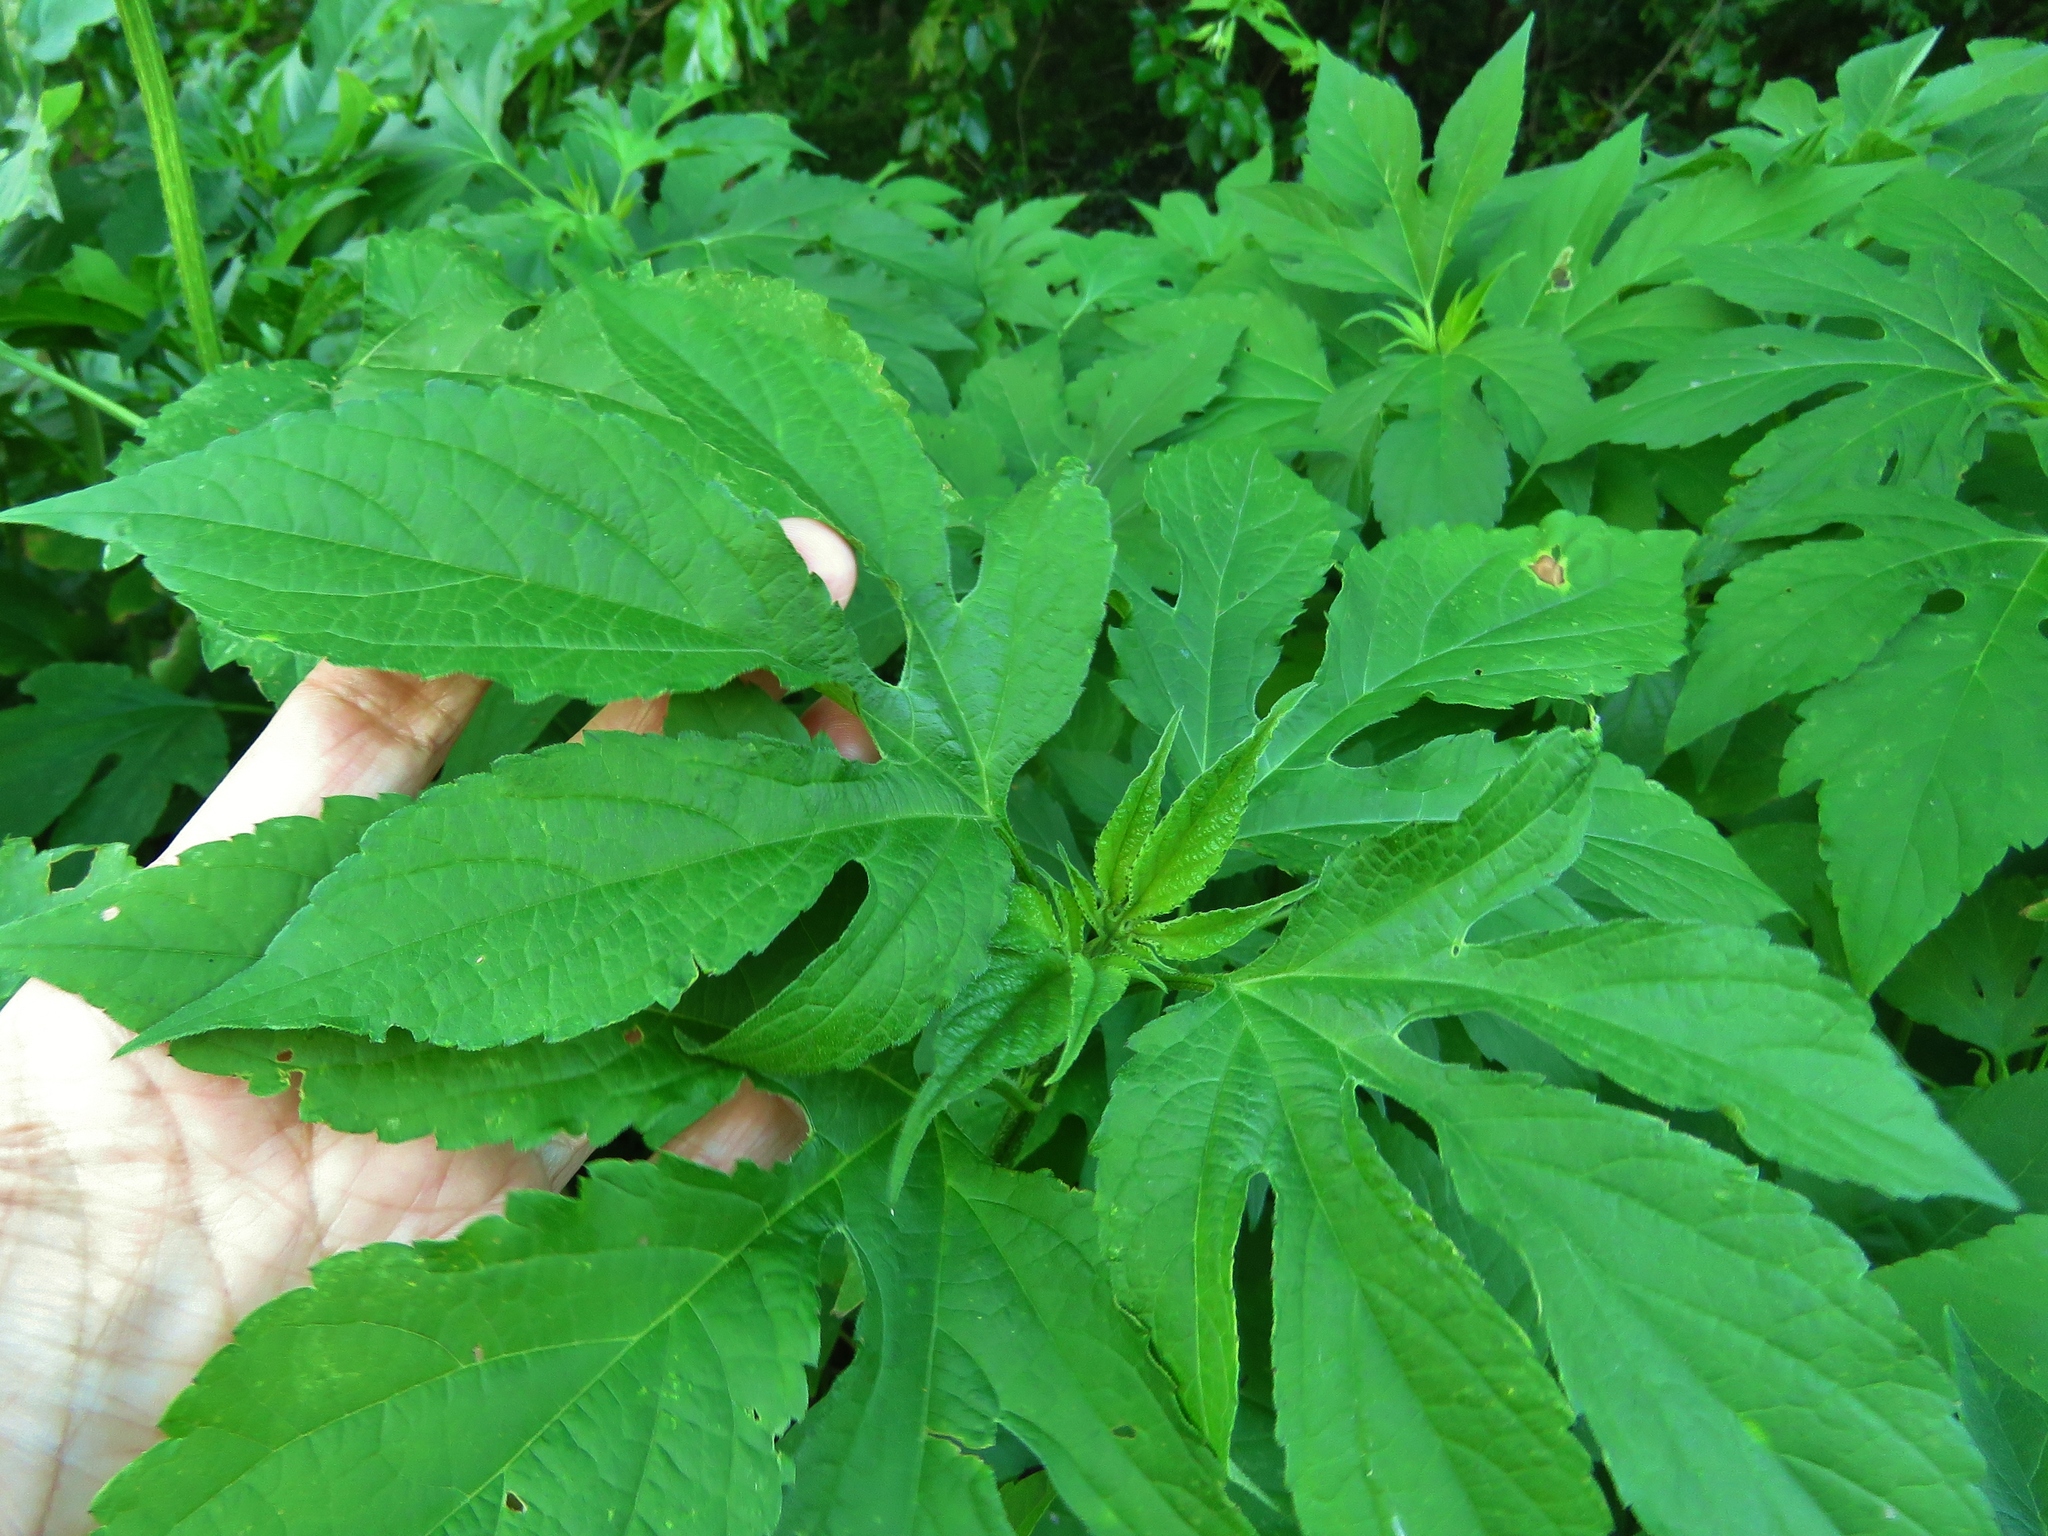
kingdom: Plantae
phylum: Tracheophyta
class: Magnoliopsida
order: Asterales
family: Asteraceae
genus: Ambrosia
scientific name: Ambrosia trifida
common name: Giant ragweed
